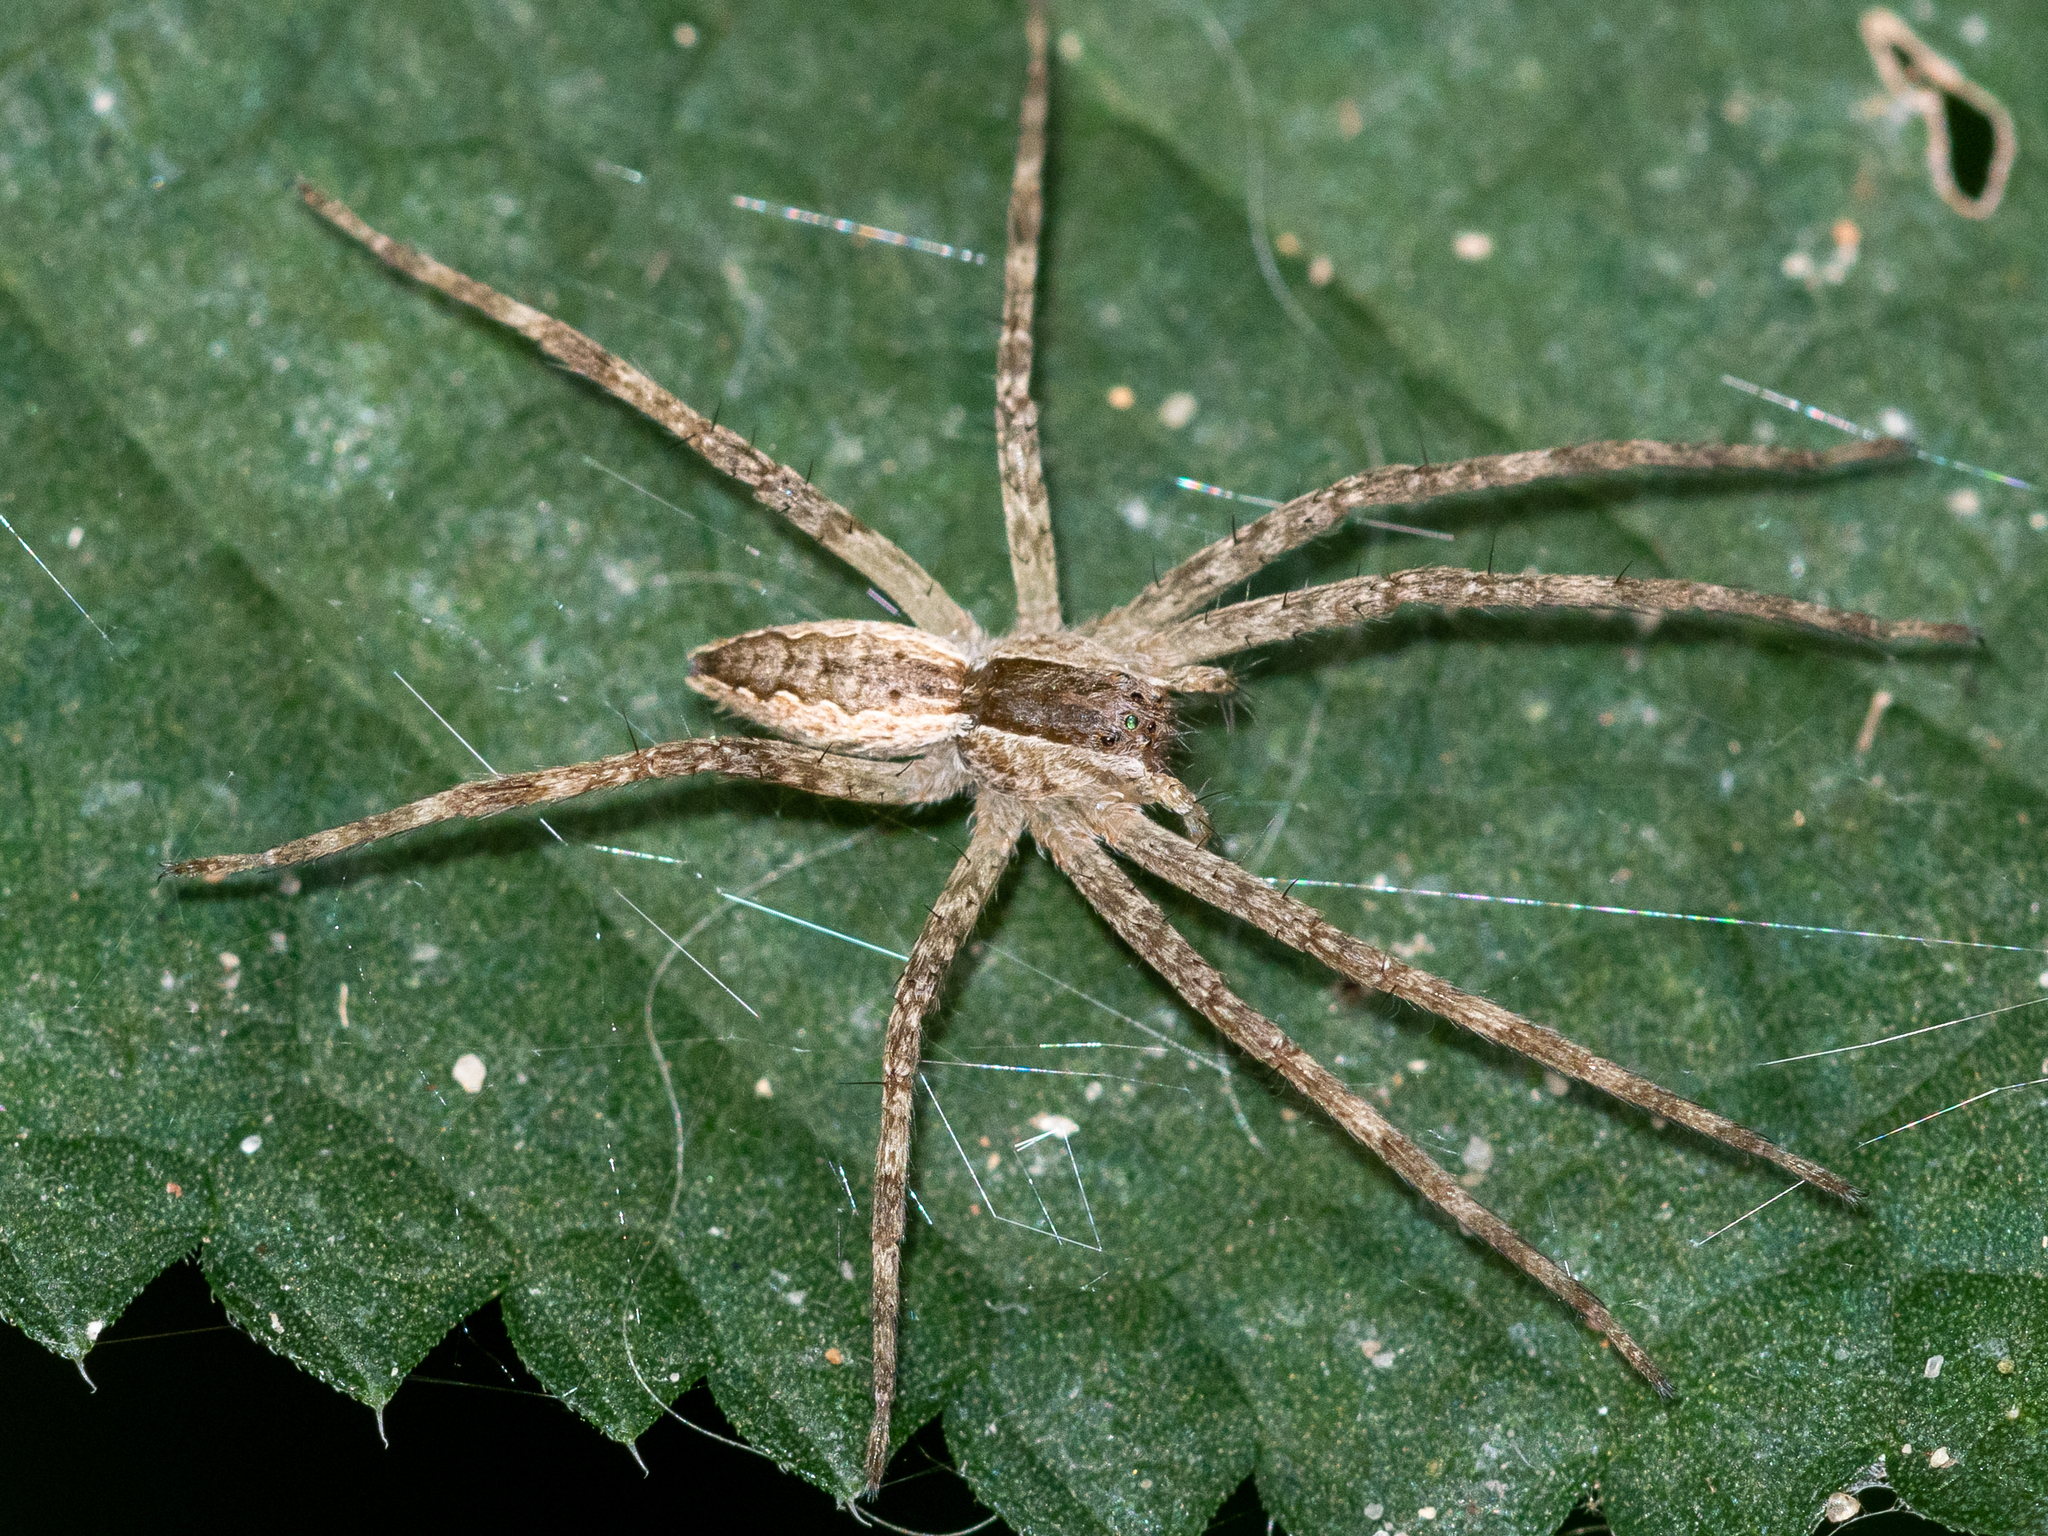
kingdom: Animalia
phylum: Arthropoda
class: Arachnida
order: Araneae
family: Pisauridae
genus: Pisaurina
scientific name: Pisaurina mira
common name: American nursery web spider
